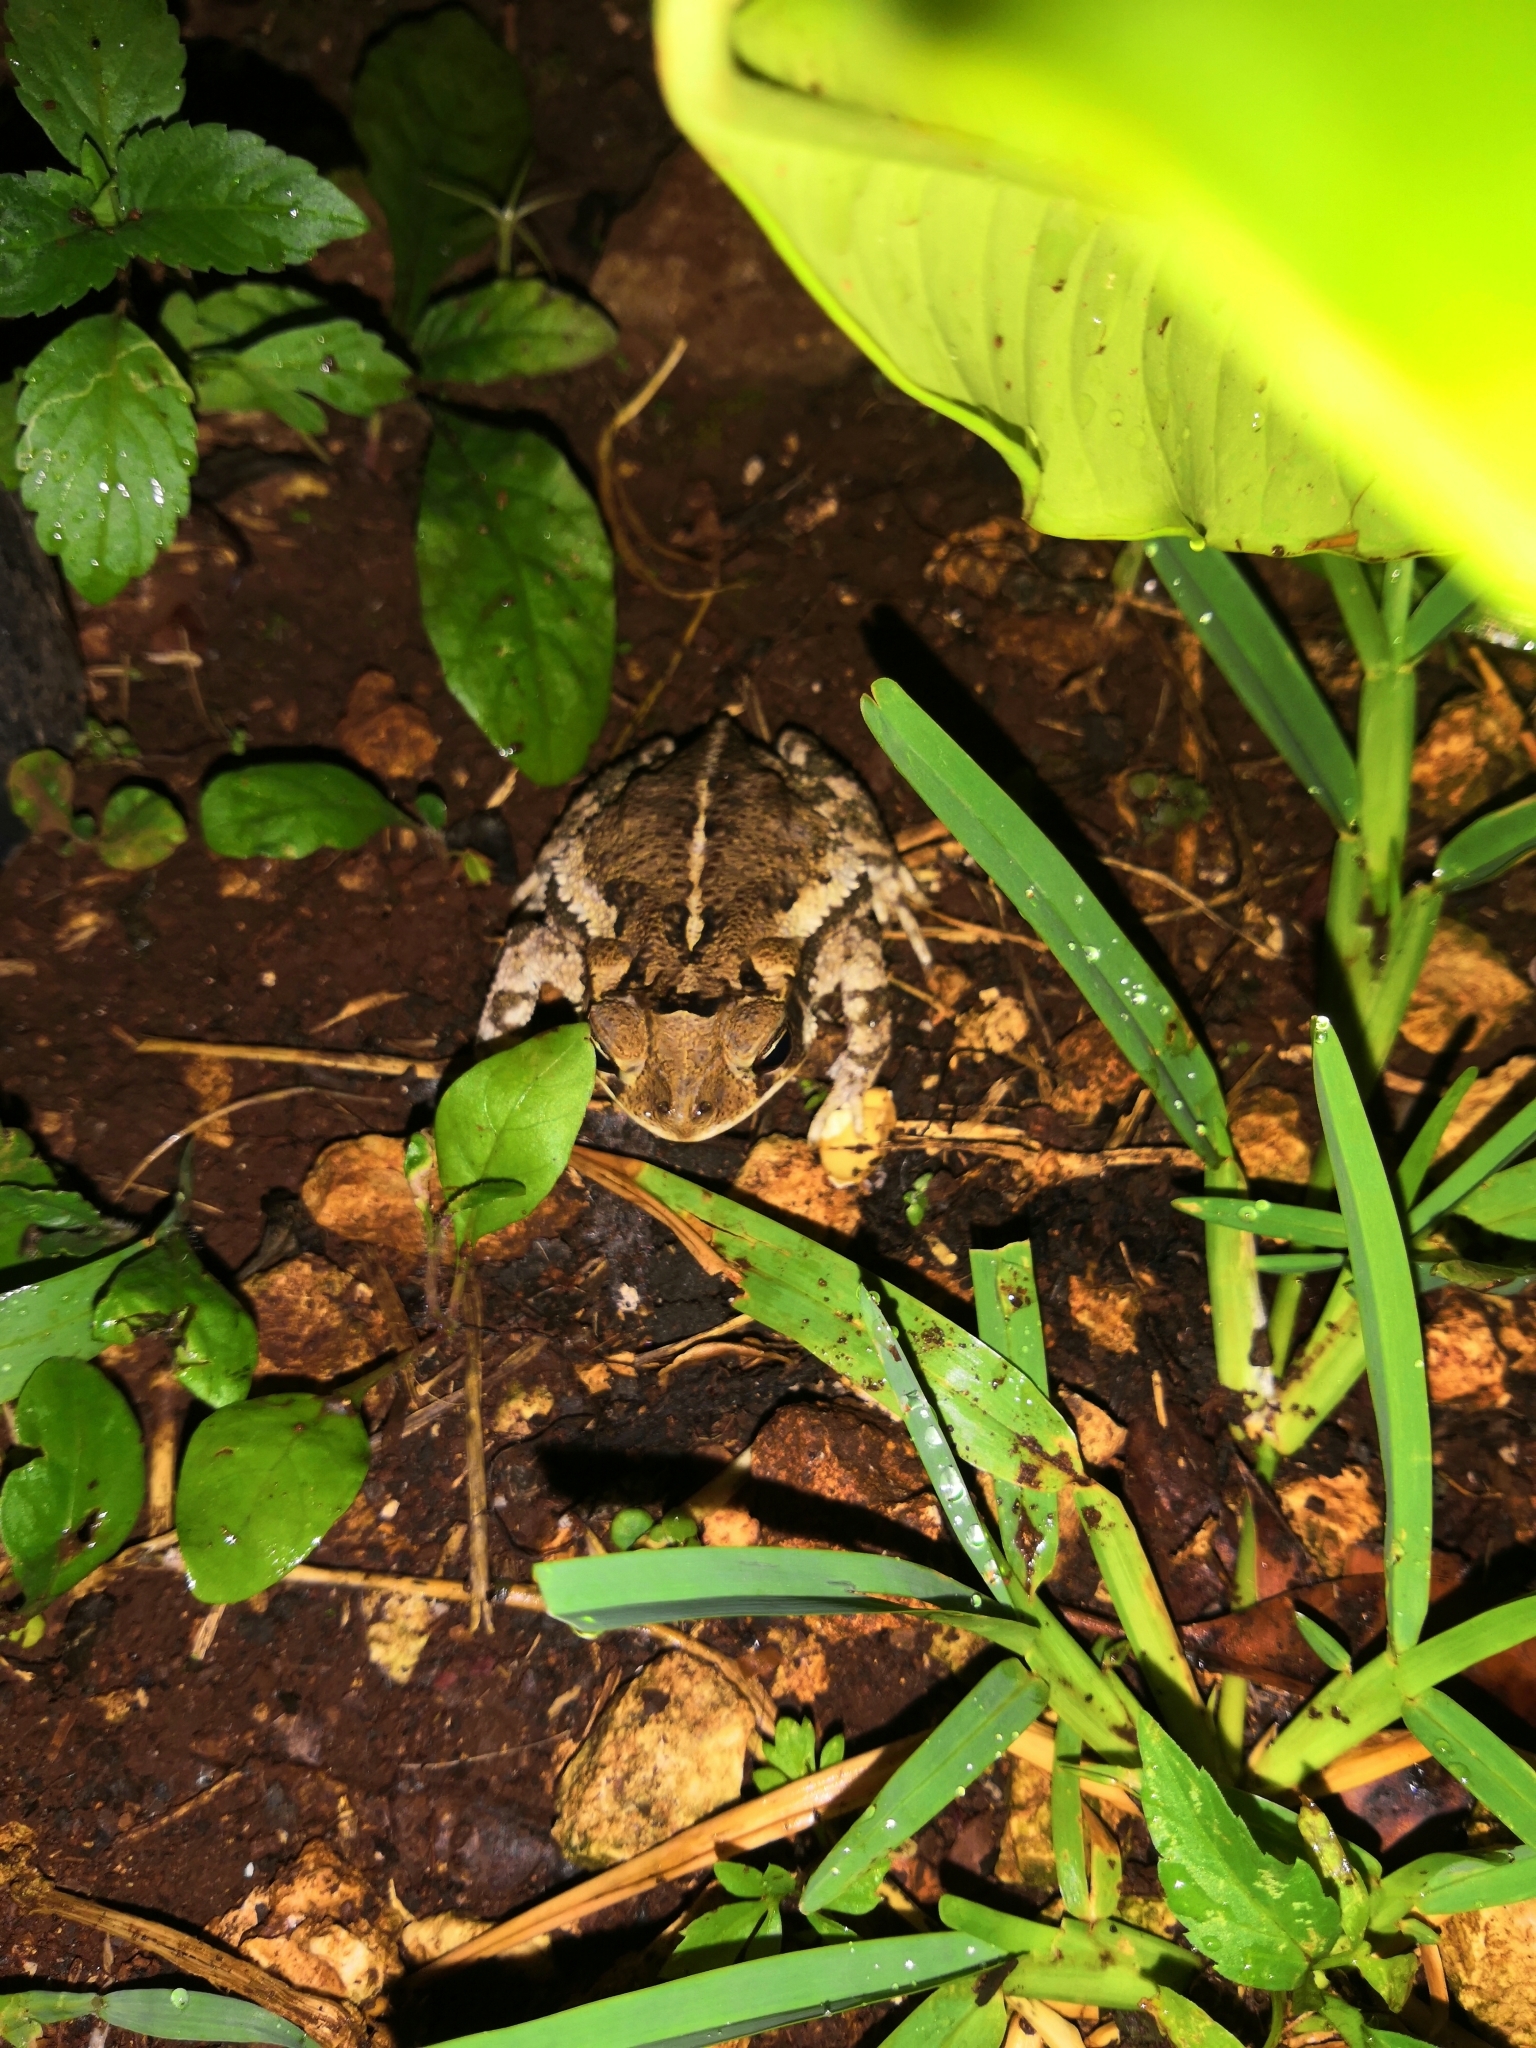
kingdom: Animalia
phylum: Chordata
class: Amphibia
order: Anura
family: Bufonidae
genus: Incilius
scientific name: Incilius valliceps
